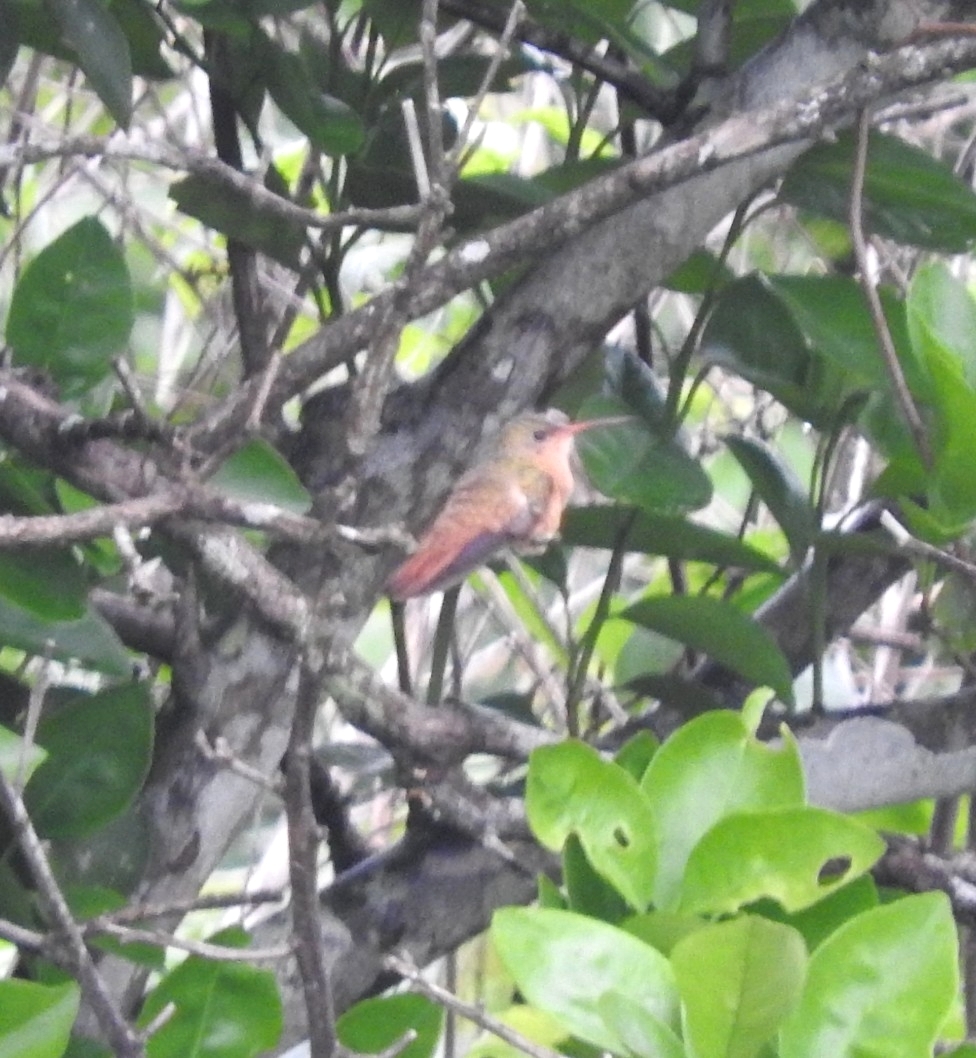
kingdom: Animalia
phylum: Chordata
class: Aves
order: Apodiformes
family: Trochilidae
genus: Amazilia
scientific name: Amazilia rutila
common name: Cinnamon hummingbird
